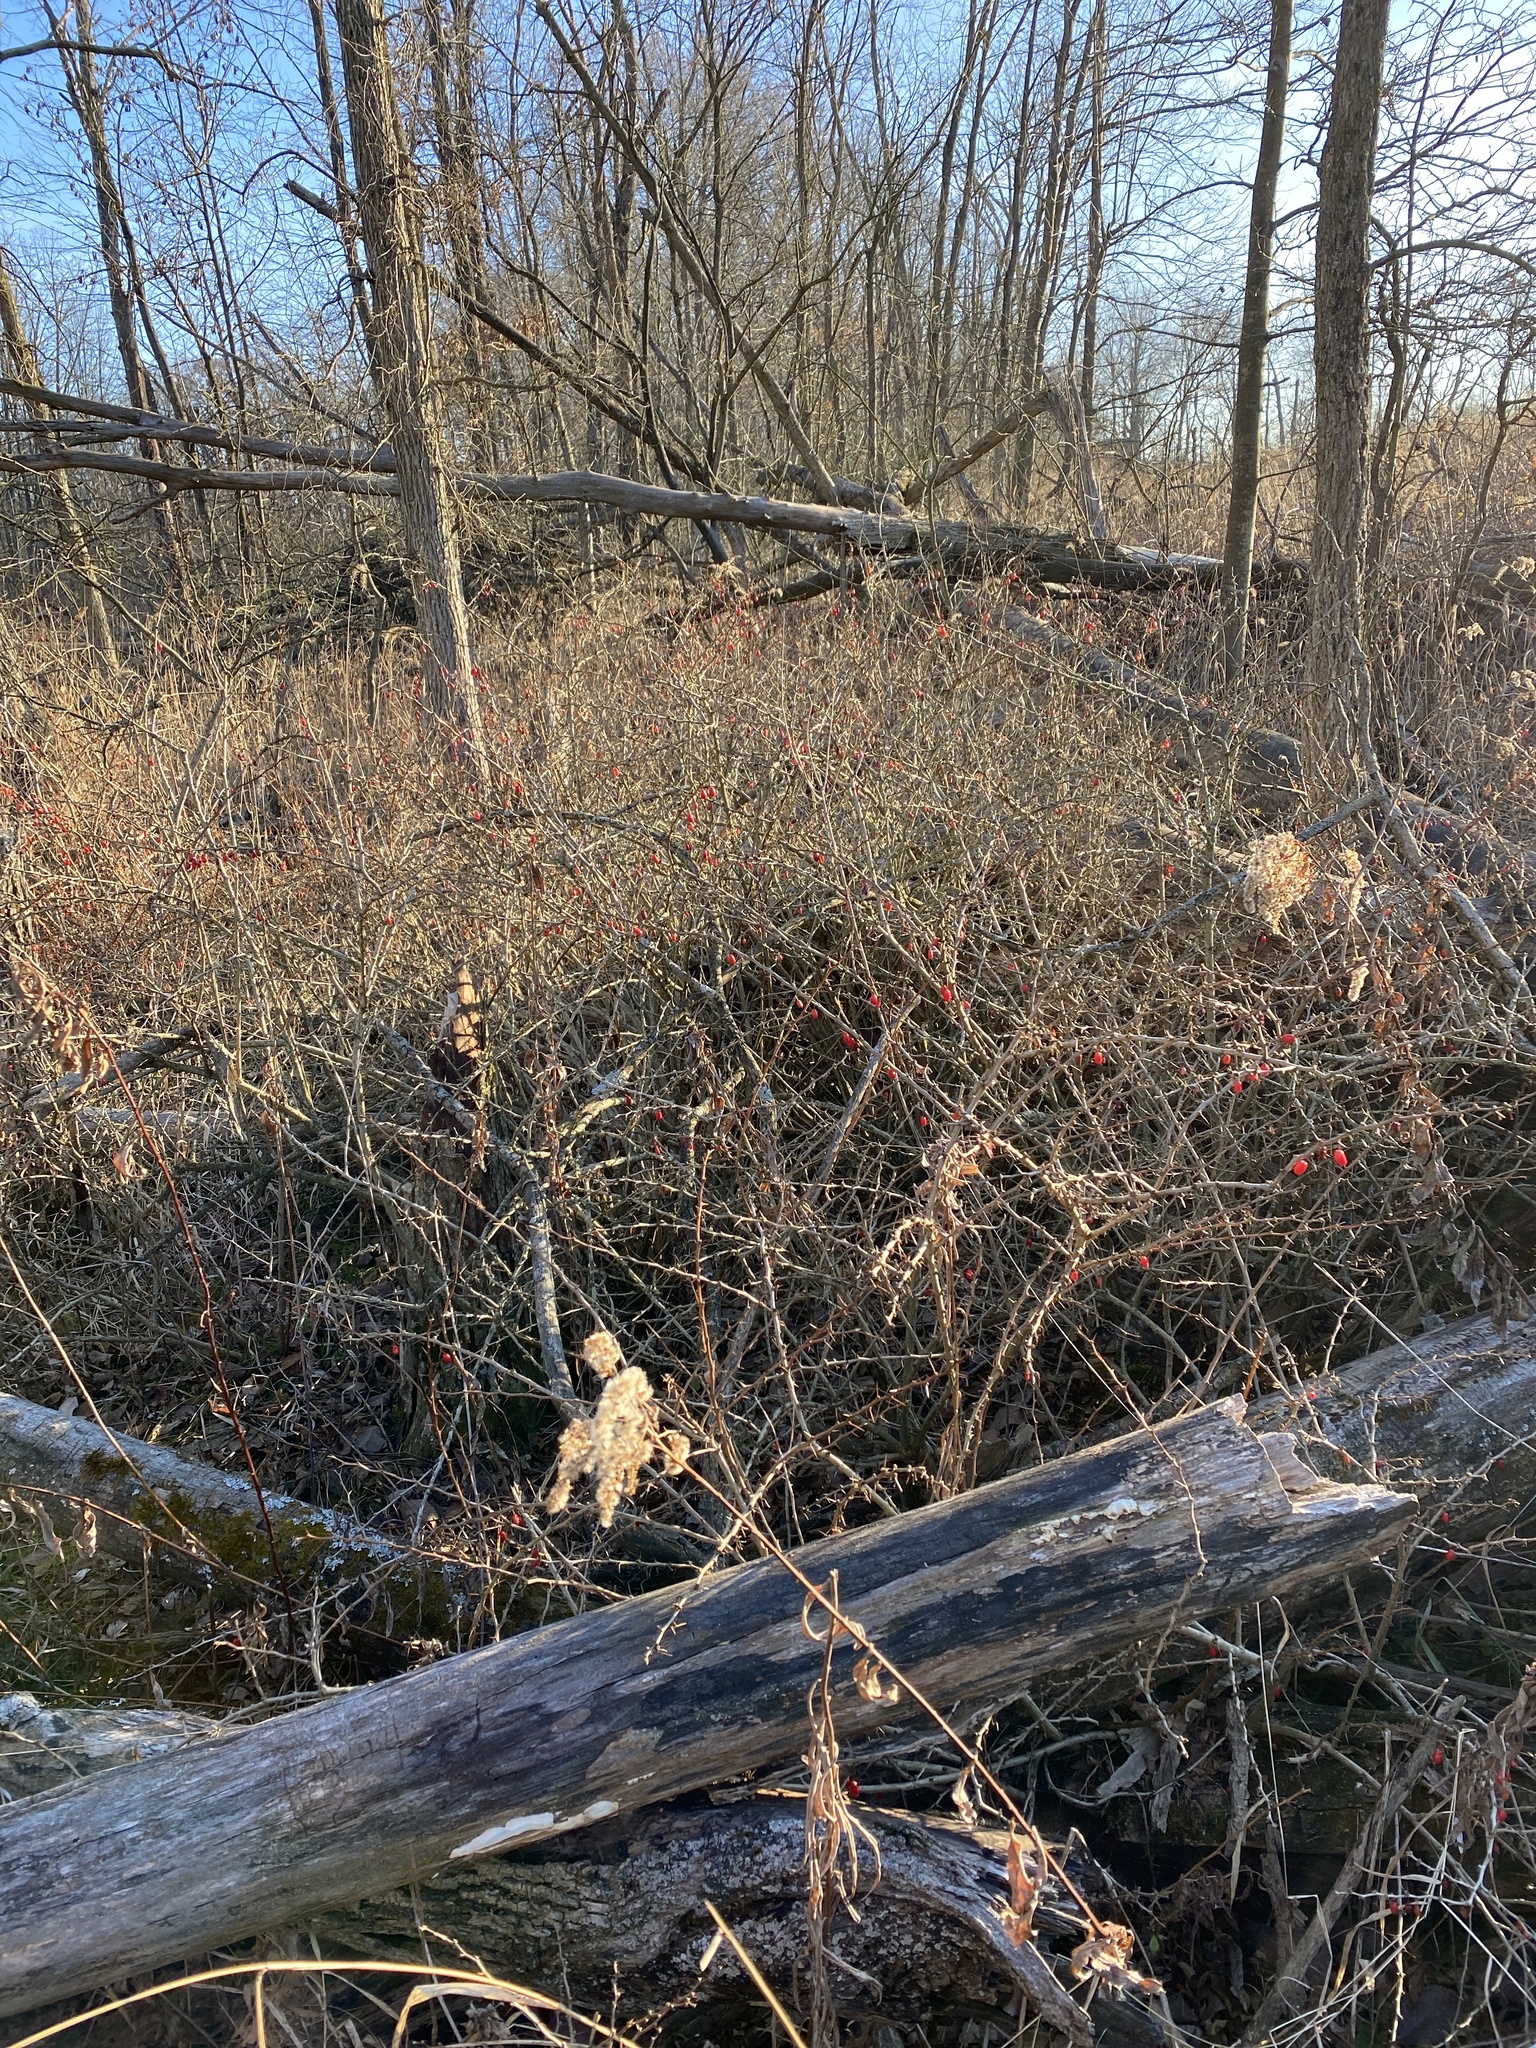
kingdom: Plantae
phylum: Tracheophyta
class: Magnoliopsida
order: Ranunculales
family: Berberidaceae
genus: Berberis
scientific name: Berberis thunbergii
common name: Japanese barberry
